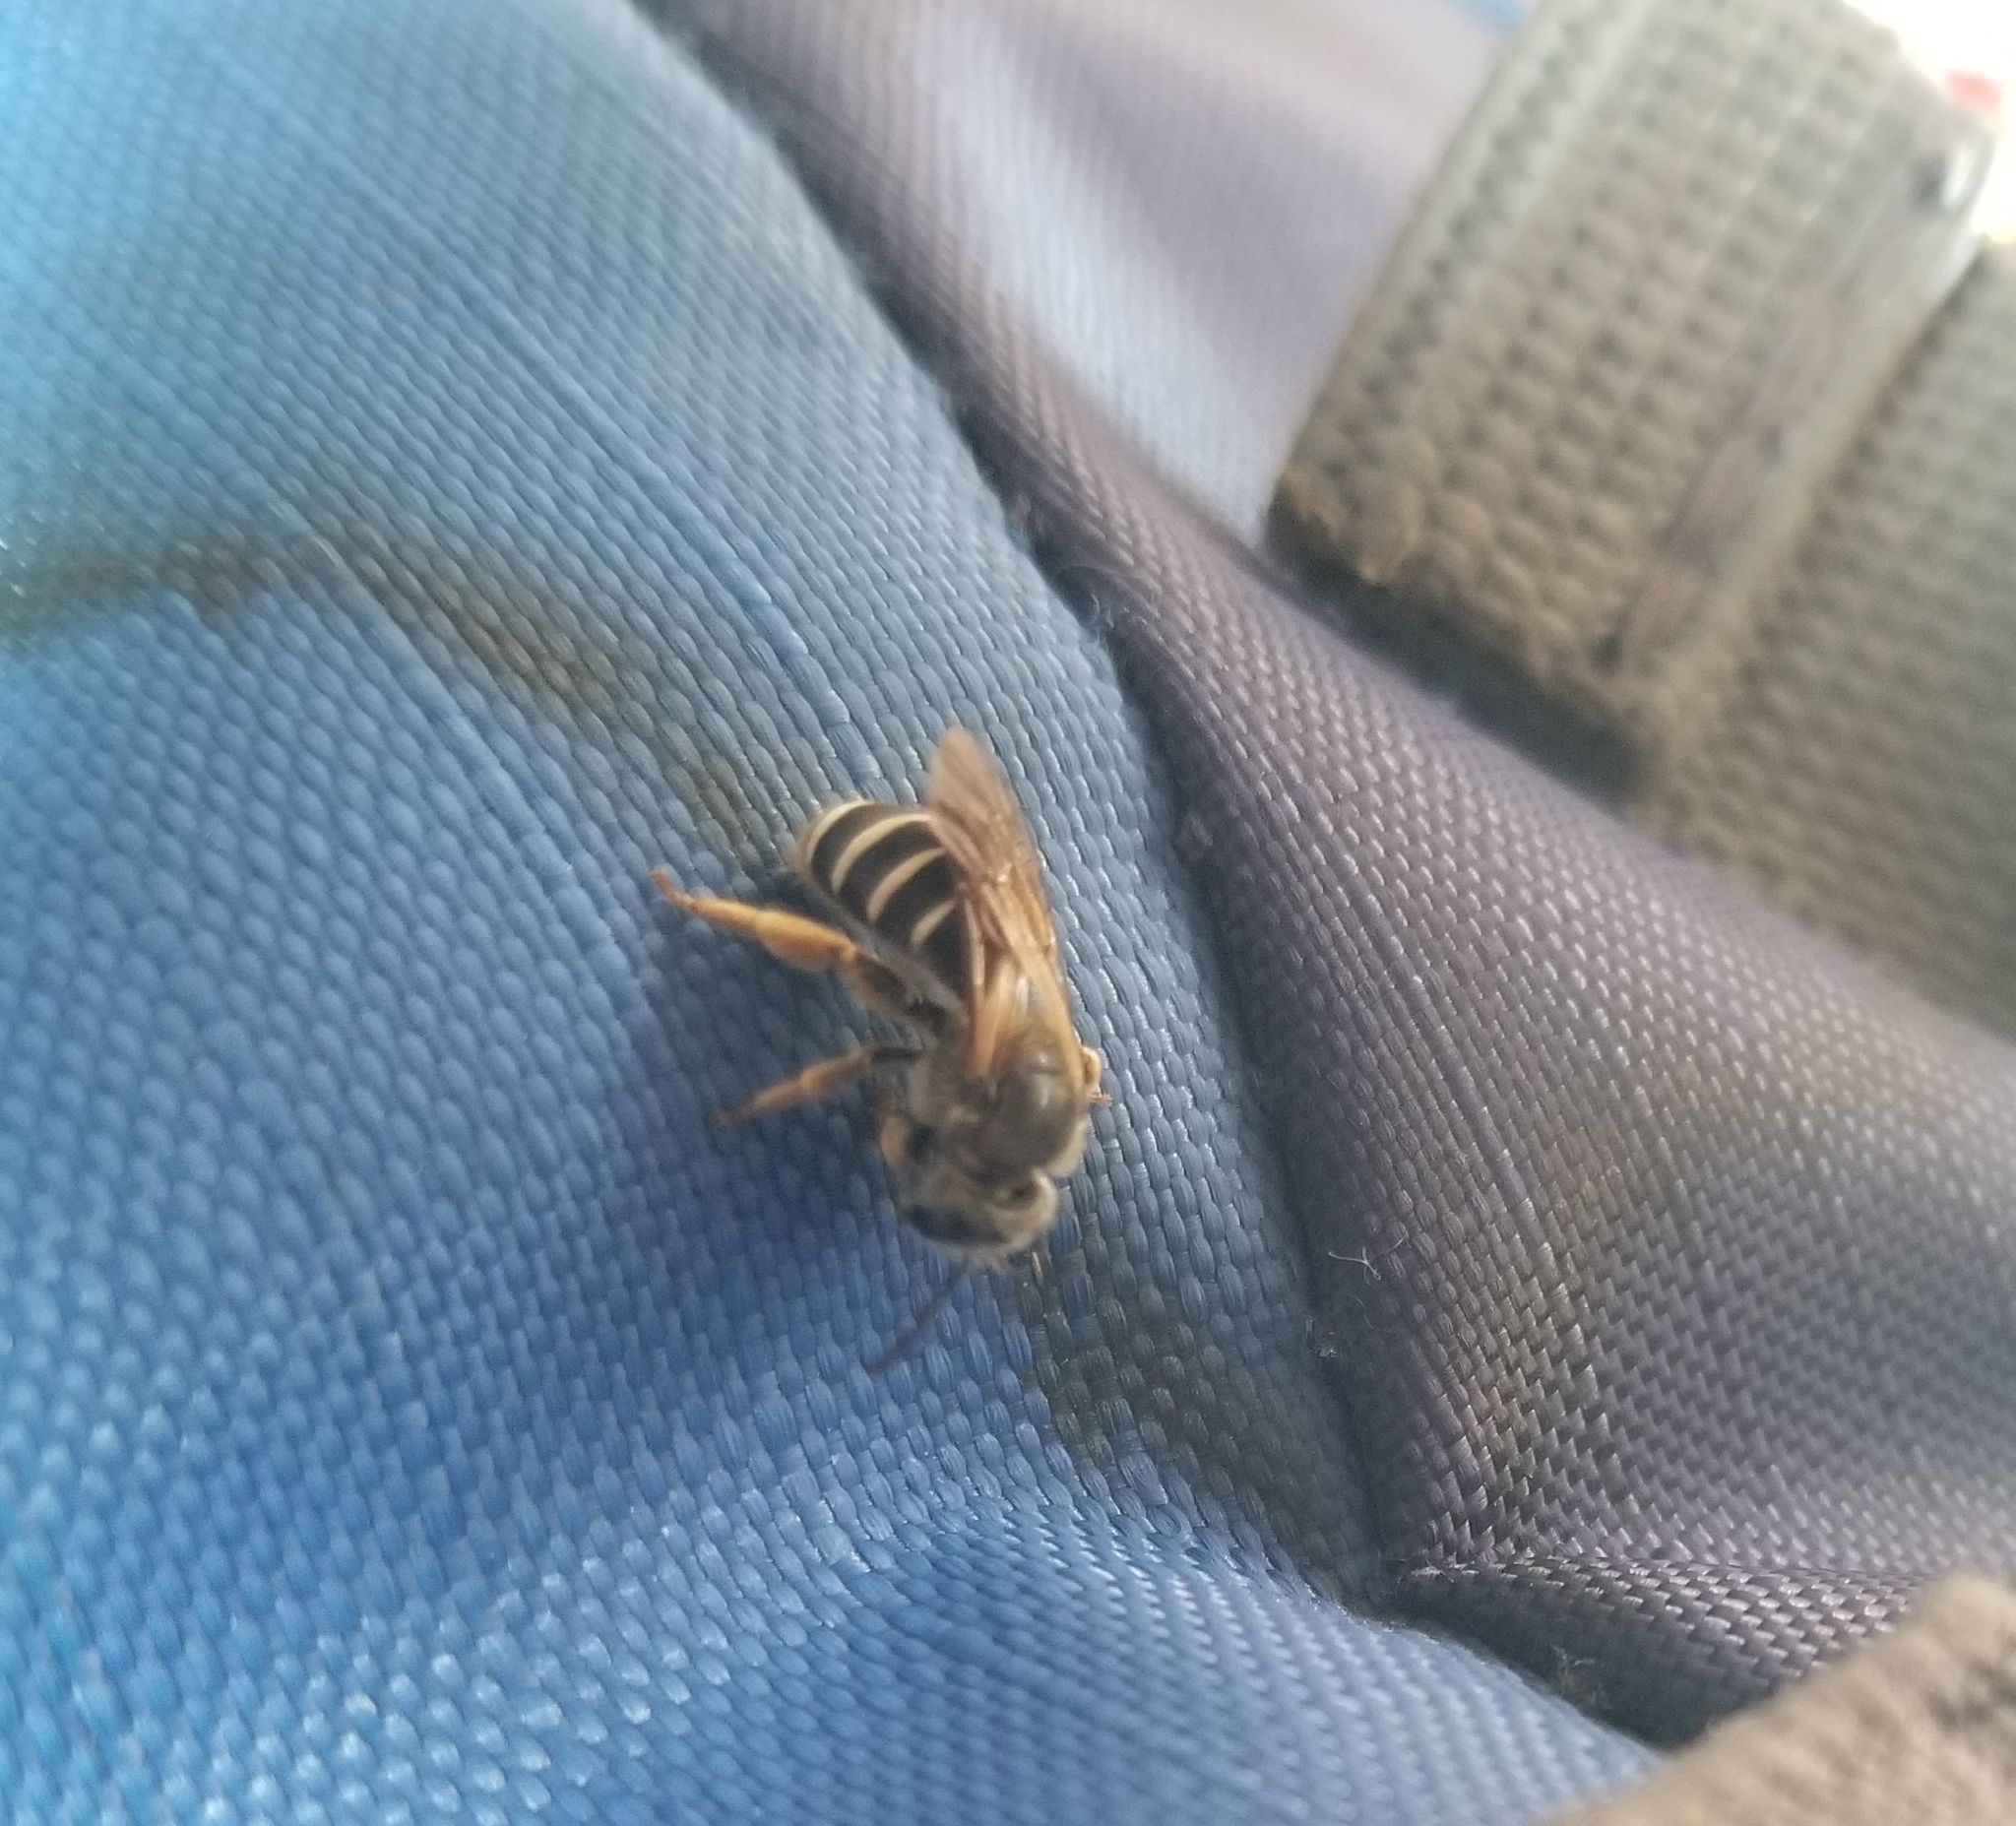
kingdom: Animalia
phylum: Arthropoda
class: Insecta
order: Hymenoptera
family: Halictidae
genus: Halictus
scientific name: Halictus rubicundus
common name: Orange-legged furrow bee
